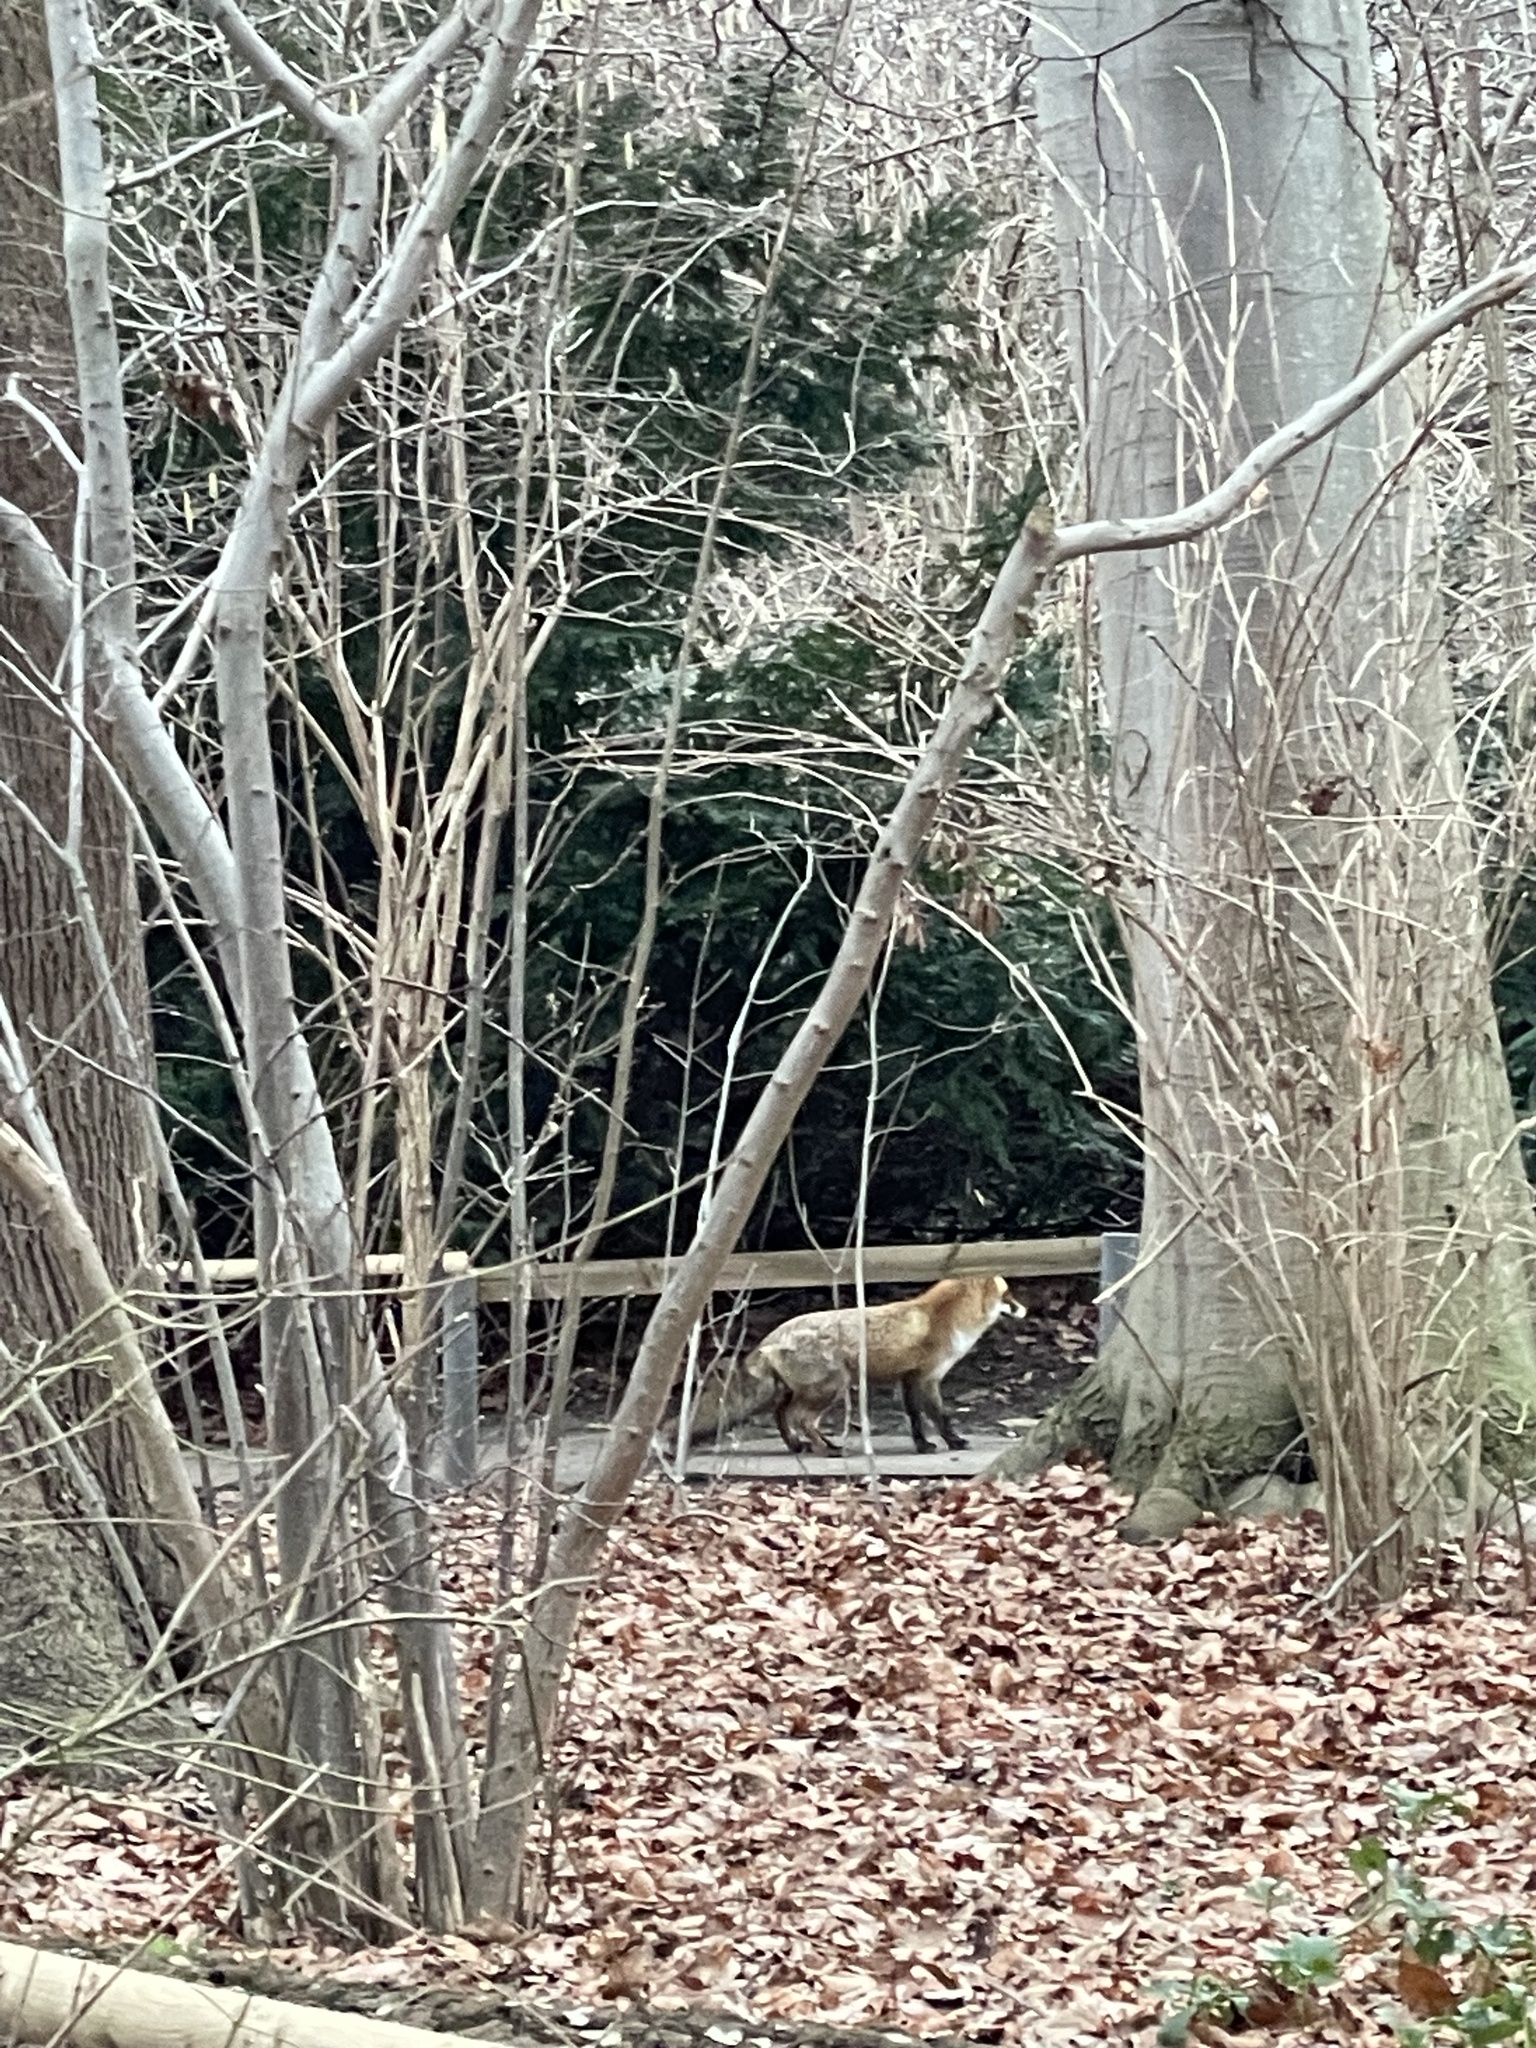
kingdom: Animalia
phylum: Chordata
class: Mammalia
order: Carnivora
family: Canidae
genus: Vulpes
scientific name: Vulpes vulpes
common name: Red fox
